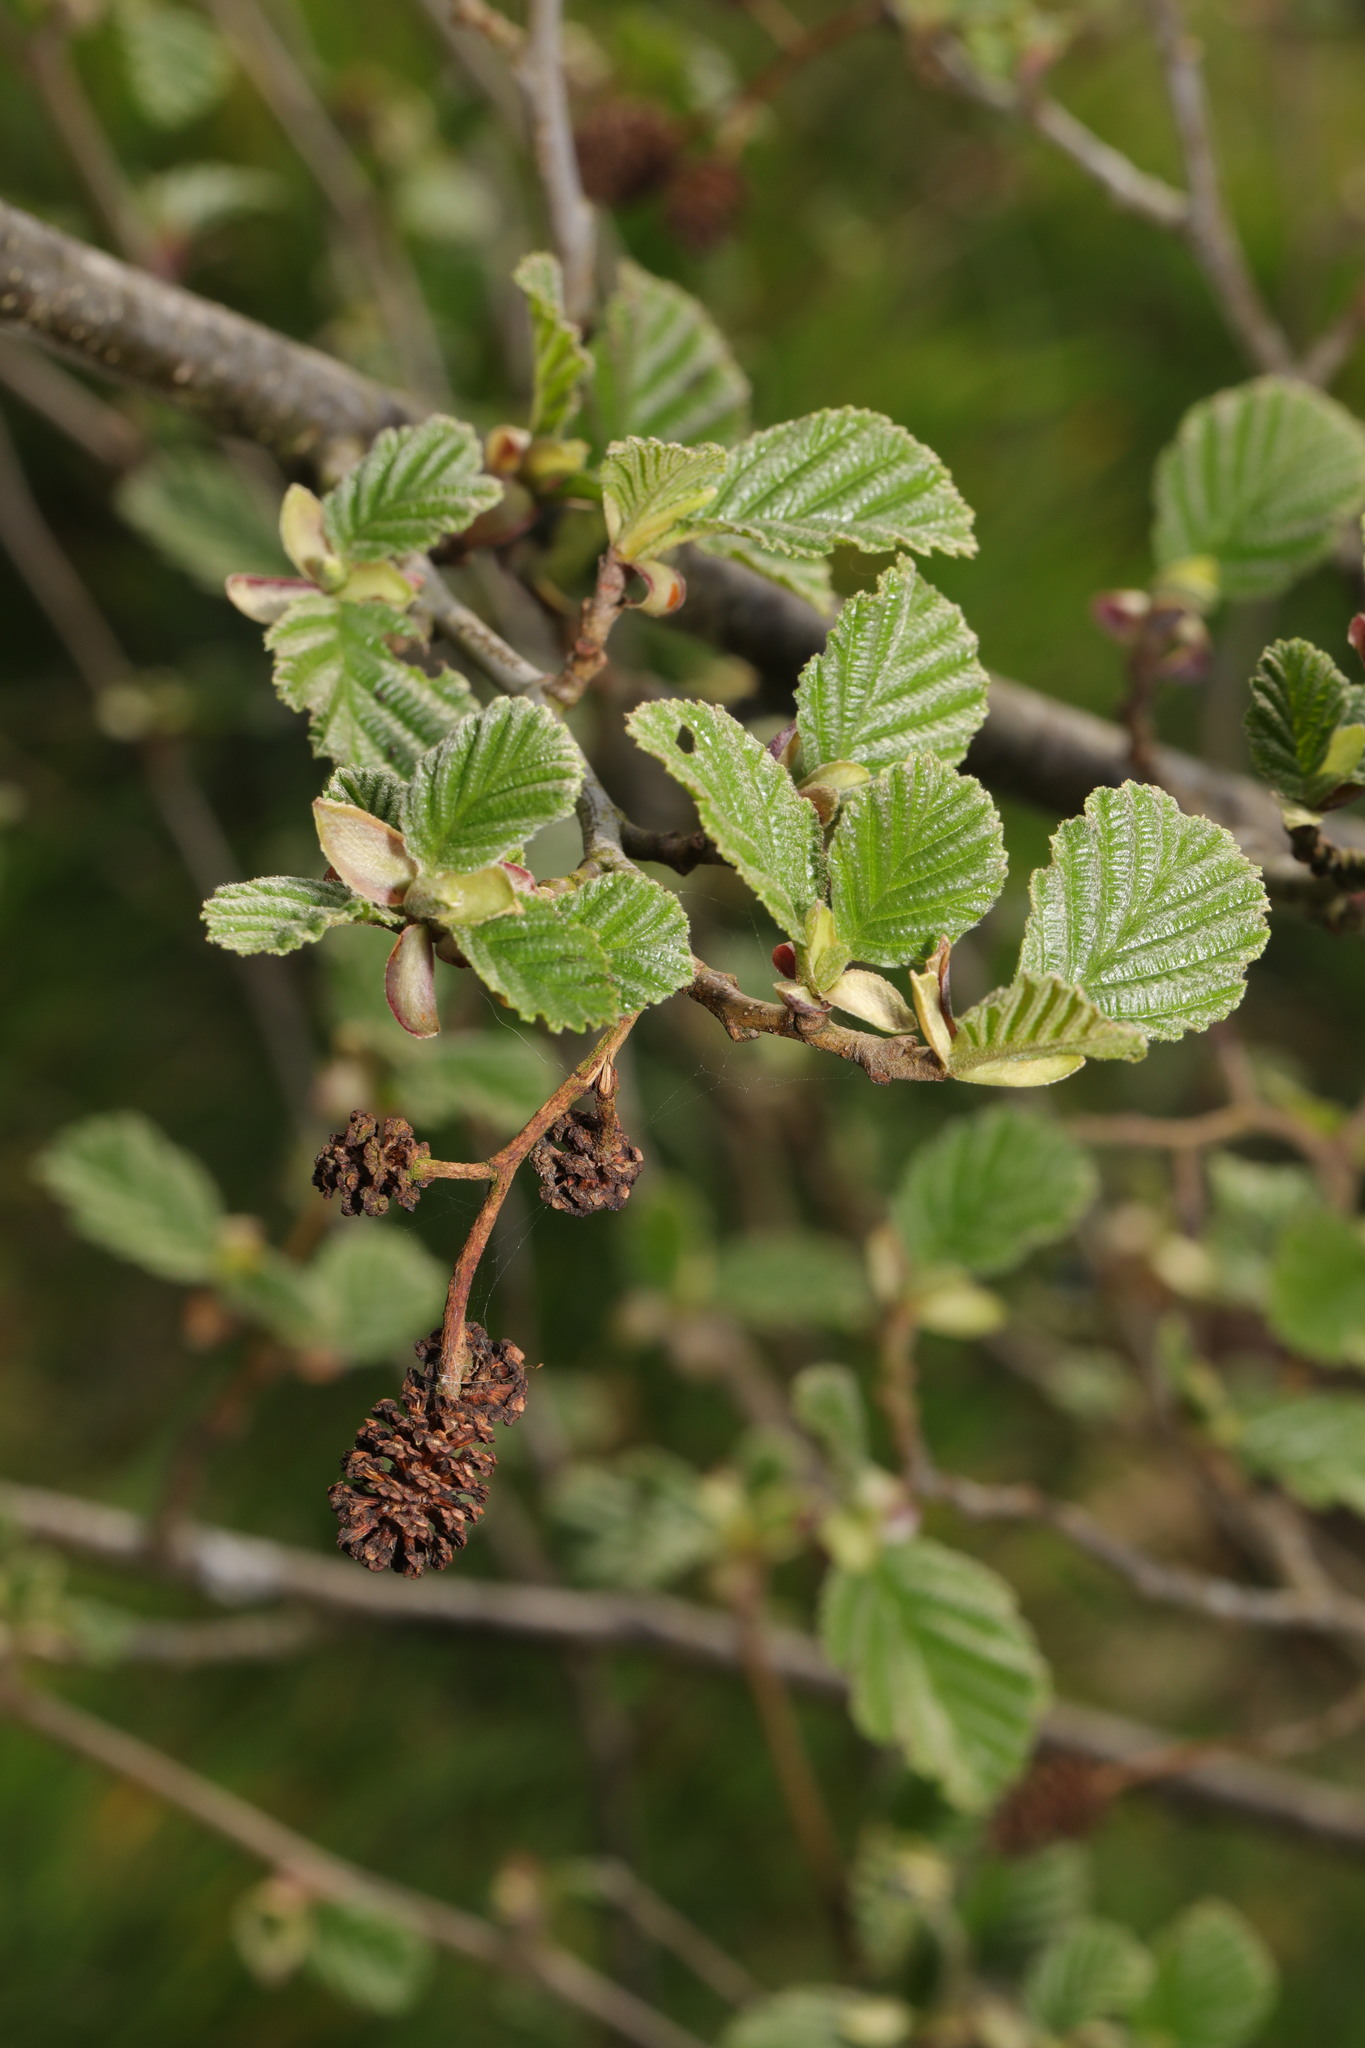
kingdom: Plantae
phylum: Tracheophyta
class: Magnoliopsida
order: Fagales
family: Betulaceae
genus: Alnus
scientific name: Alnus glutinosa
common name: Black alder
